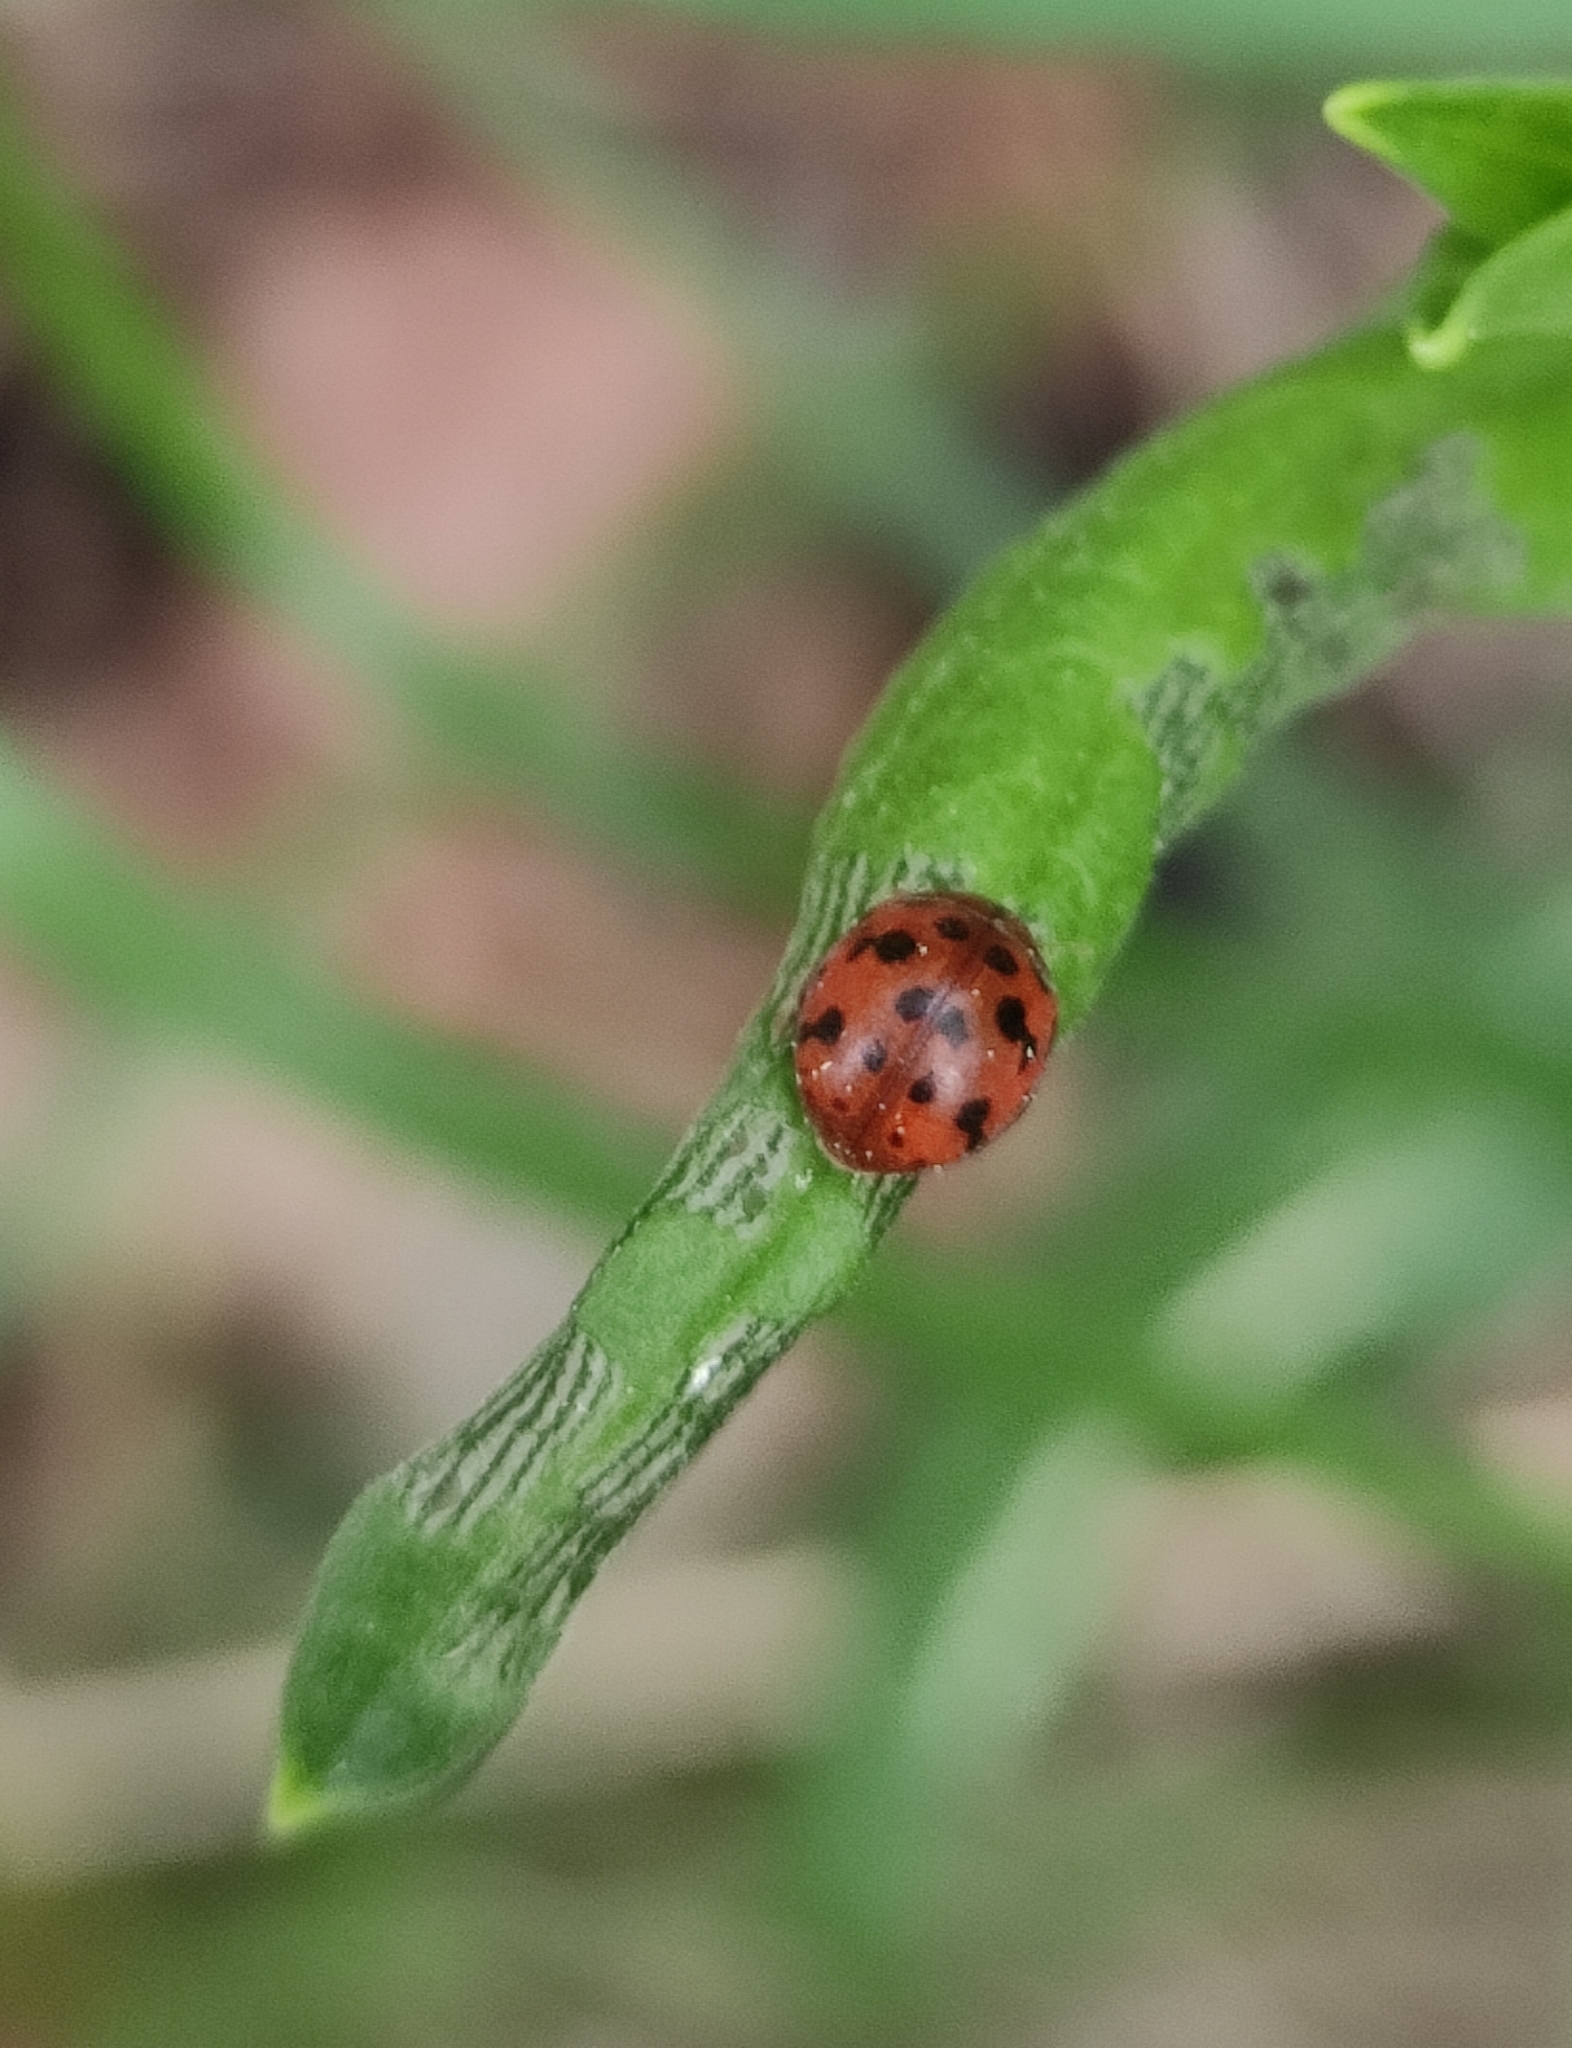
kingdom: Animalia
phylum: Arthropoda
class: Insecta
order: Coleoptera
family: Coccinellidae
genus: Subcoccinella
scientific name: Subcoccinella vigintiquatuorpunctata
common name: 24-spot ladybird
